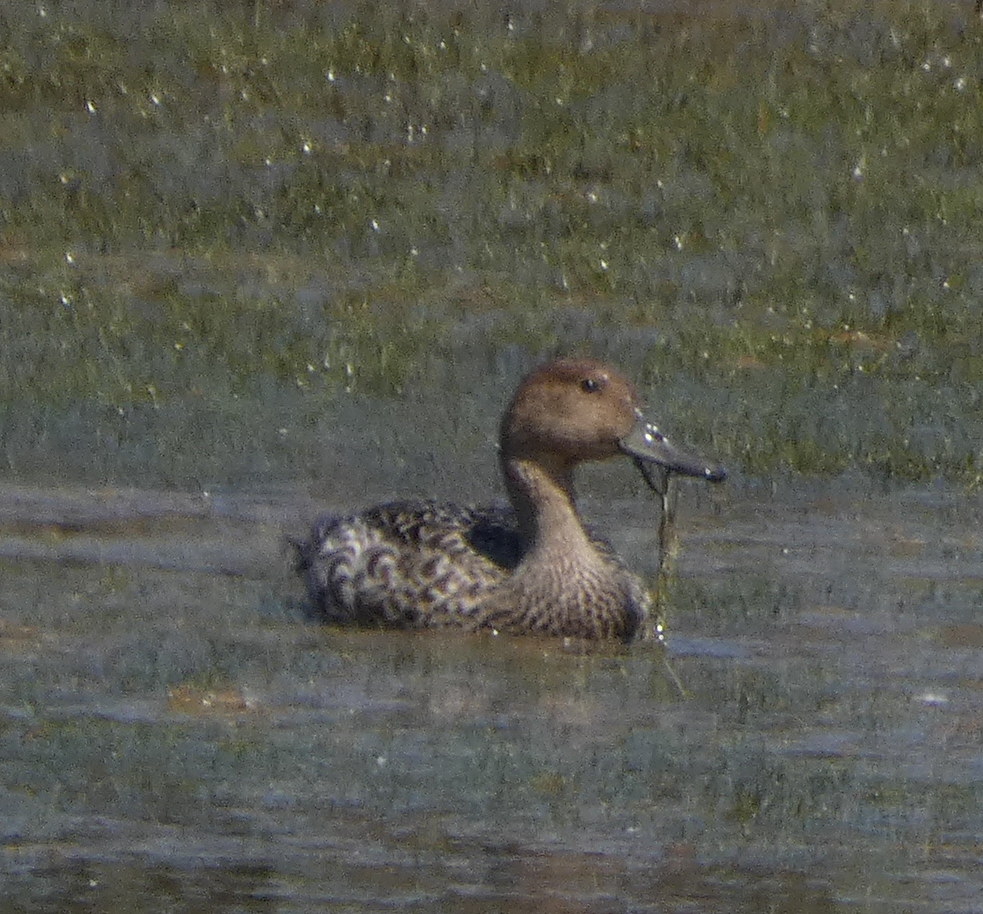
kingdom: Animalia
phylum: Chordata
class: Aves
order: Anseriformes
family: Anatidae
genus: Anas
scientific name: Anas acuta
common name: Northern pintail
